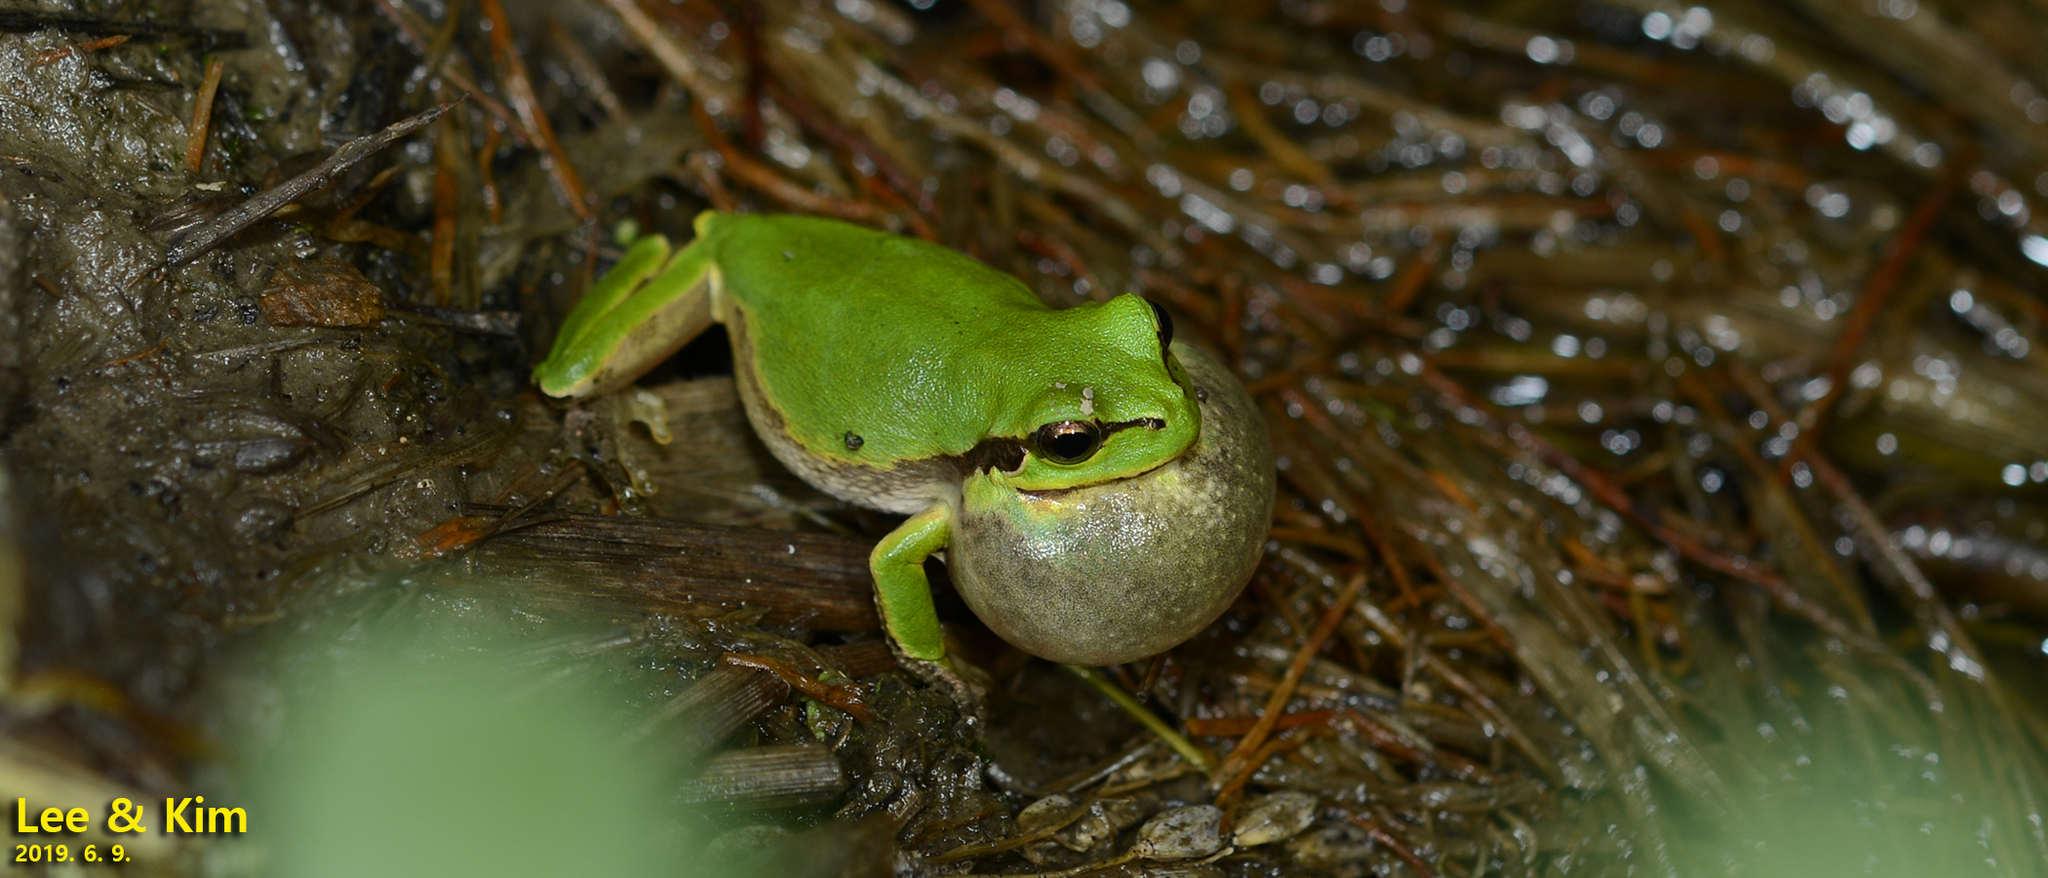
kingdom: Animalia
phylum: Chordata
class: Amphibia
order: Anura
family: Hylidae
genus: Dryophytes
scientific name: Dryophytes japonicus
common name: Japanese treefrog
